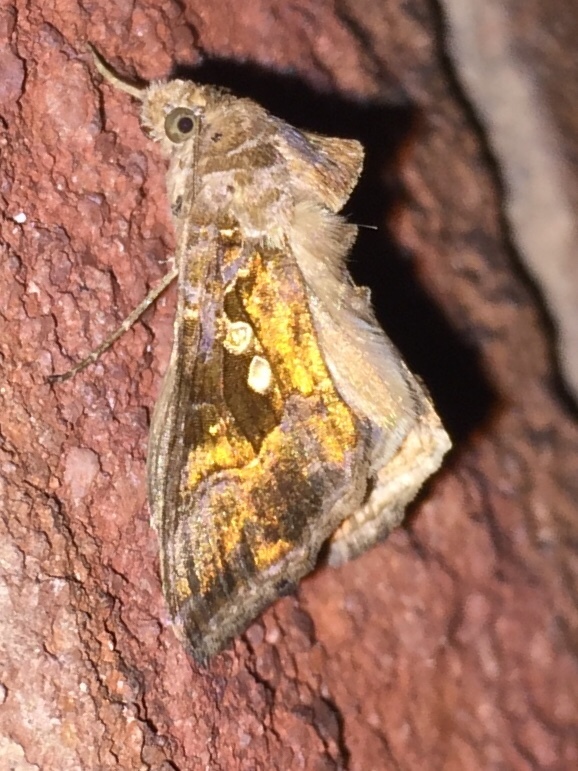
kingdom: Animalia
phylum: Arthropoda
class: Insecta
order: Lepidoptera
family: Noctuidae
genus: Chrysodeixis
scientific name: Chrysodeixis includens
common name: Cutworm moth
